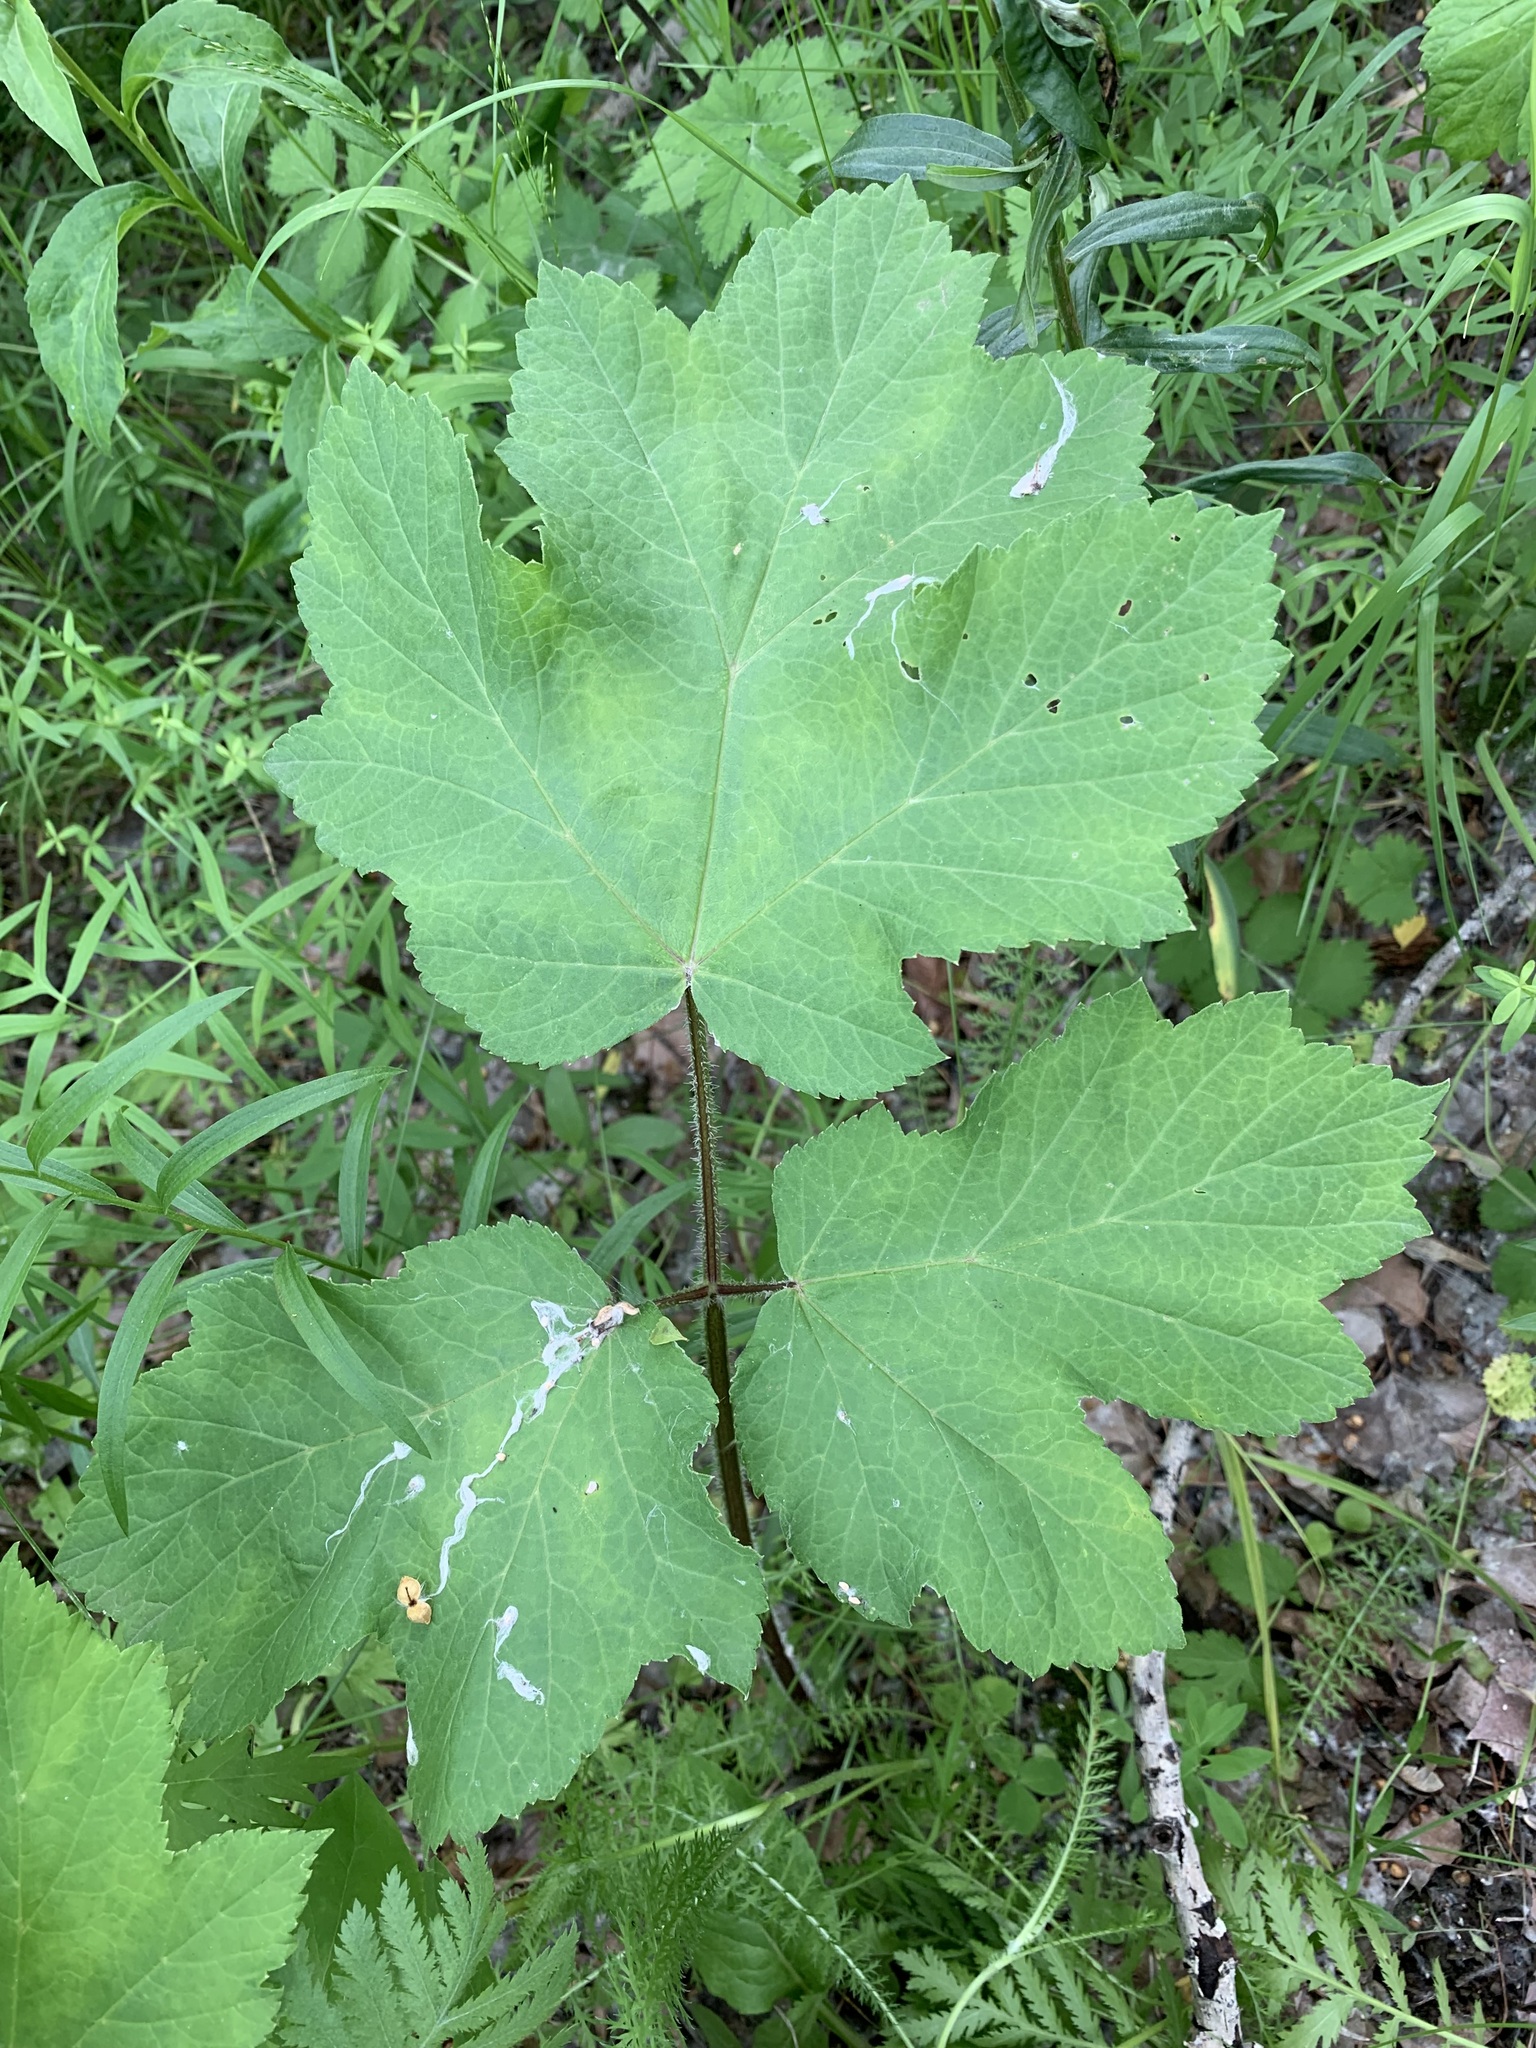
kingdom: Plantae
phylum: Tracheophyta
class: Magnoliopsida
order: Apiales
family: Apiaceae
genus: Heracleum
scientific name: Heracleum sphondylium
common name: Hogweed
